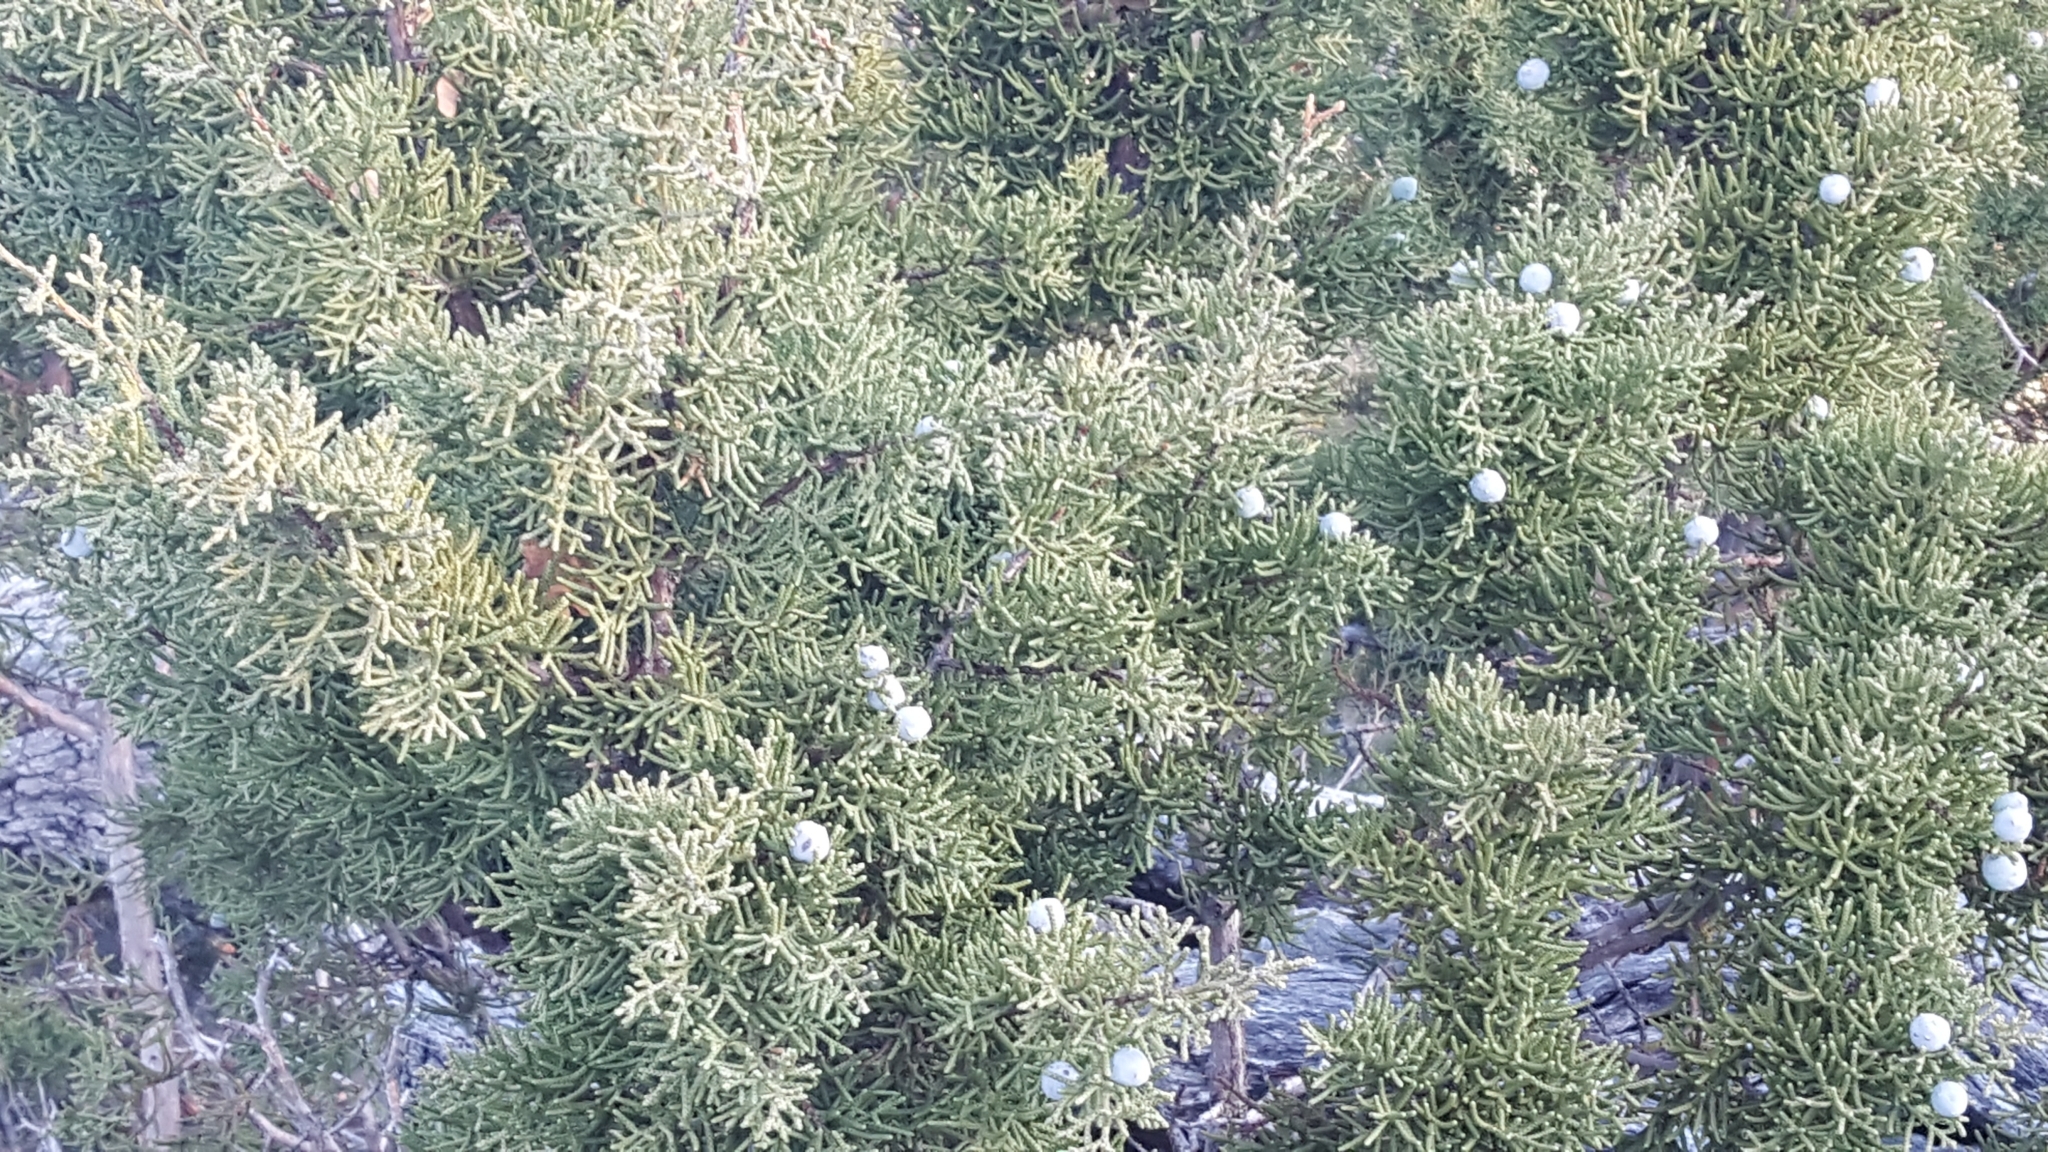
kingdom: Plantae
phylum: Tracheophyta
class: Pinopsida
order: Pinales
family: Cupressaceae
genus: Juniperus
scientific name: Juniperus californica
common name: California juniper
